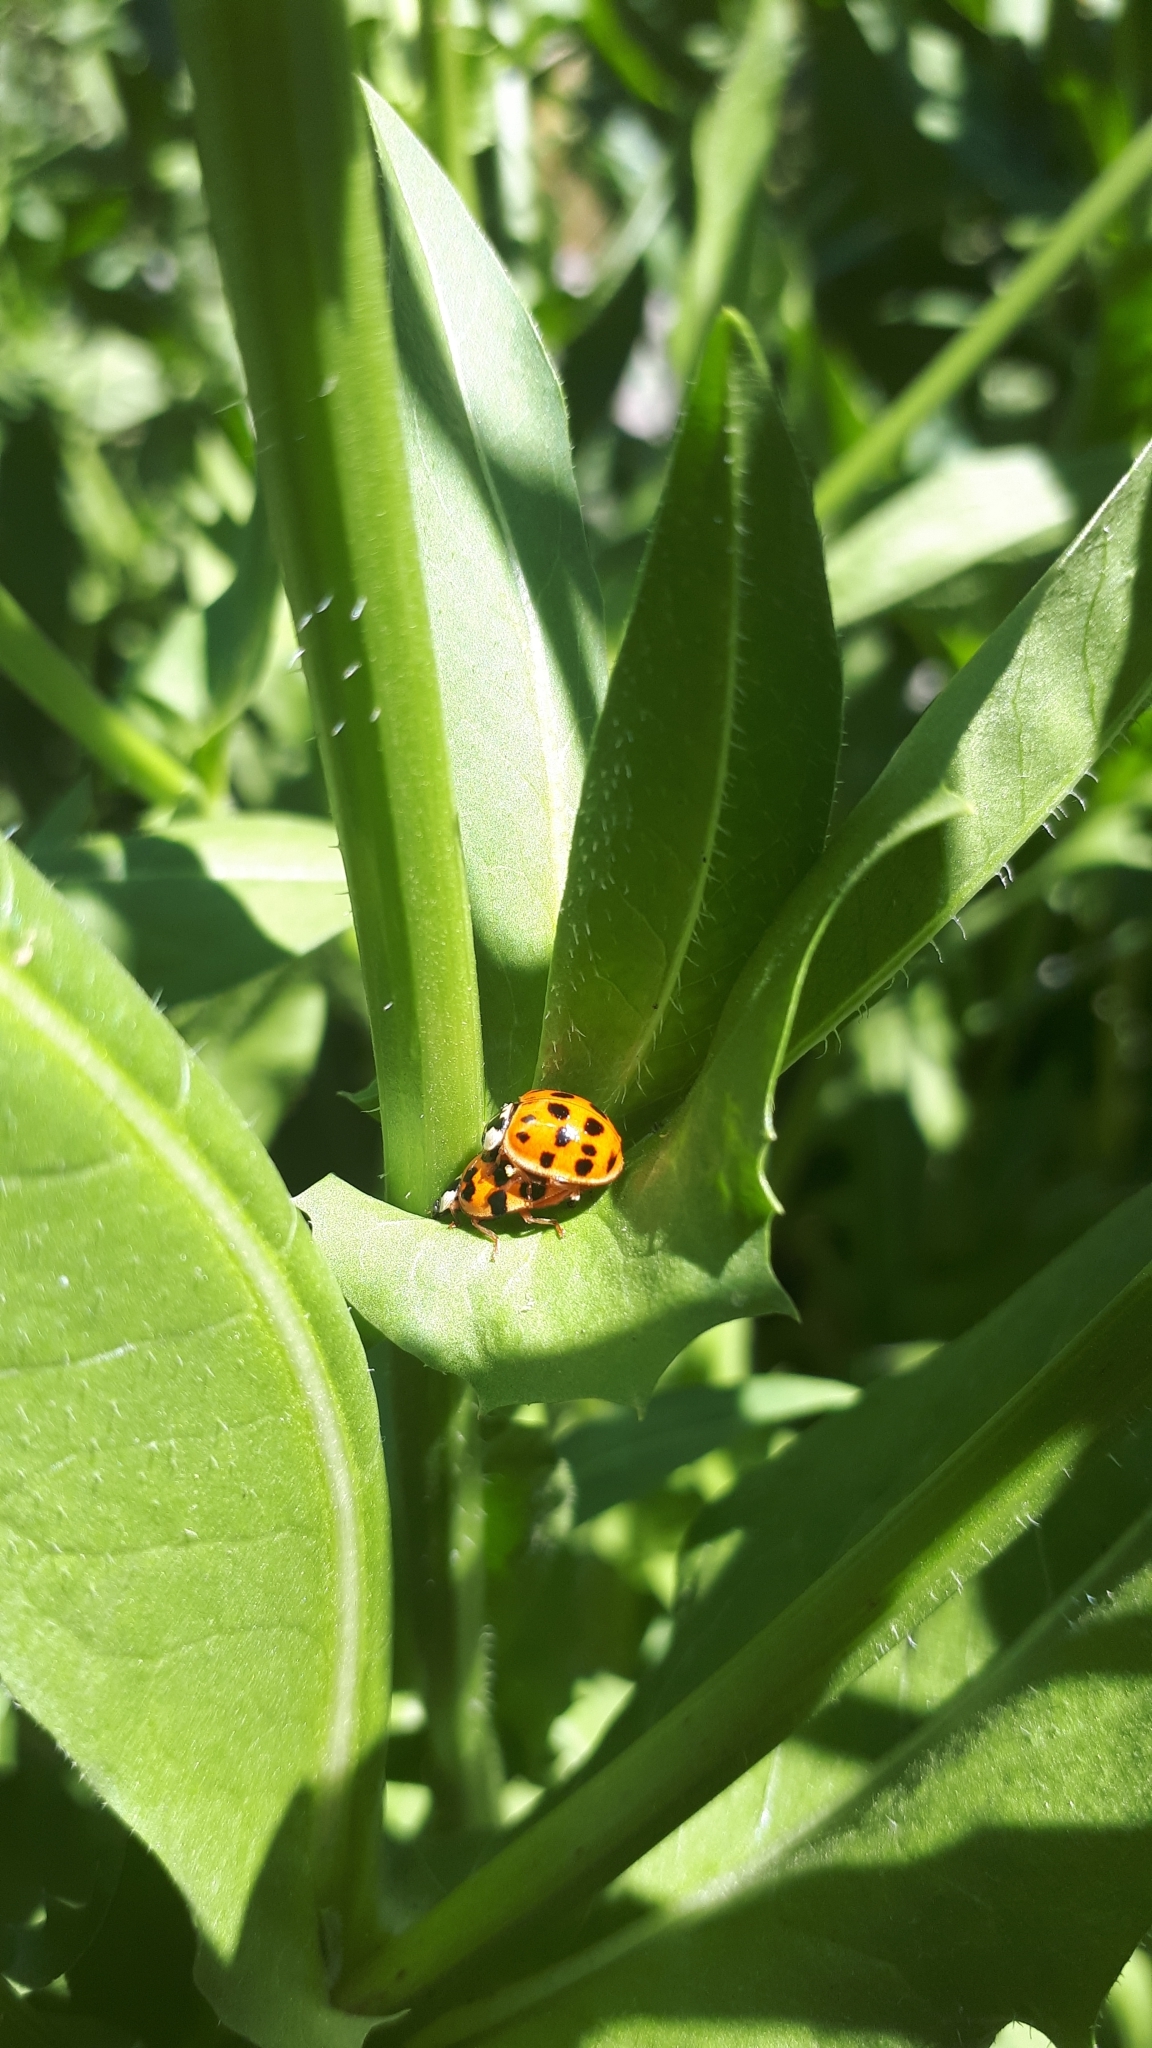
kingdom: Animalia
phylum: Arthropoda
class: Insecta
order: Coleoptera
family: Coccinellidae
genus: Harmonia
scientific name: Harmonia axyridis
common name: Harlequin ladybird
